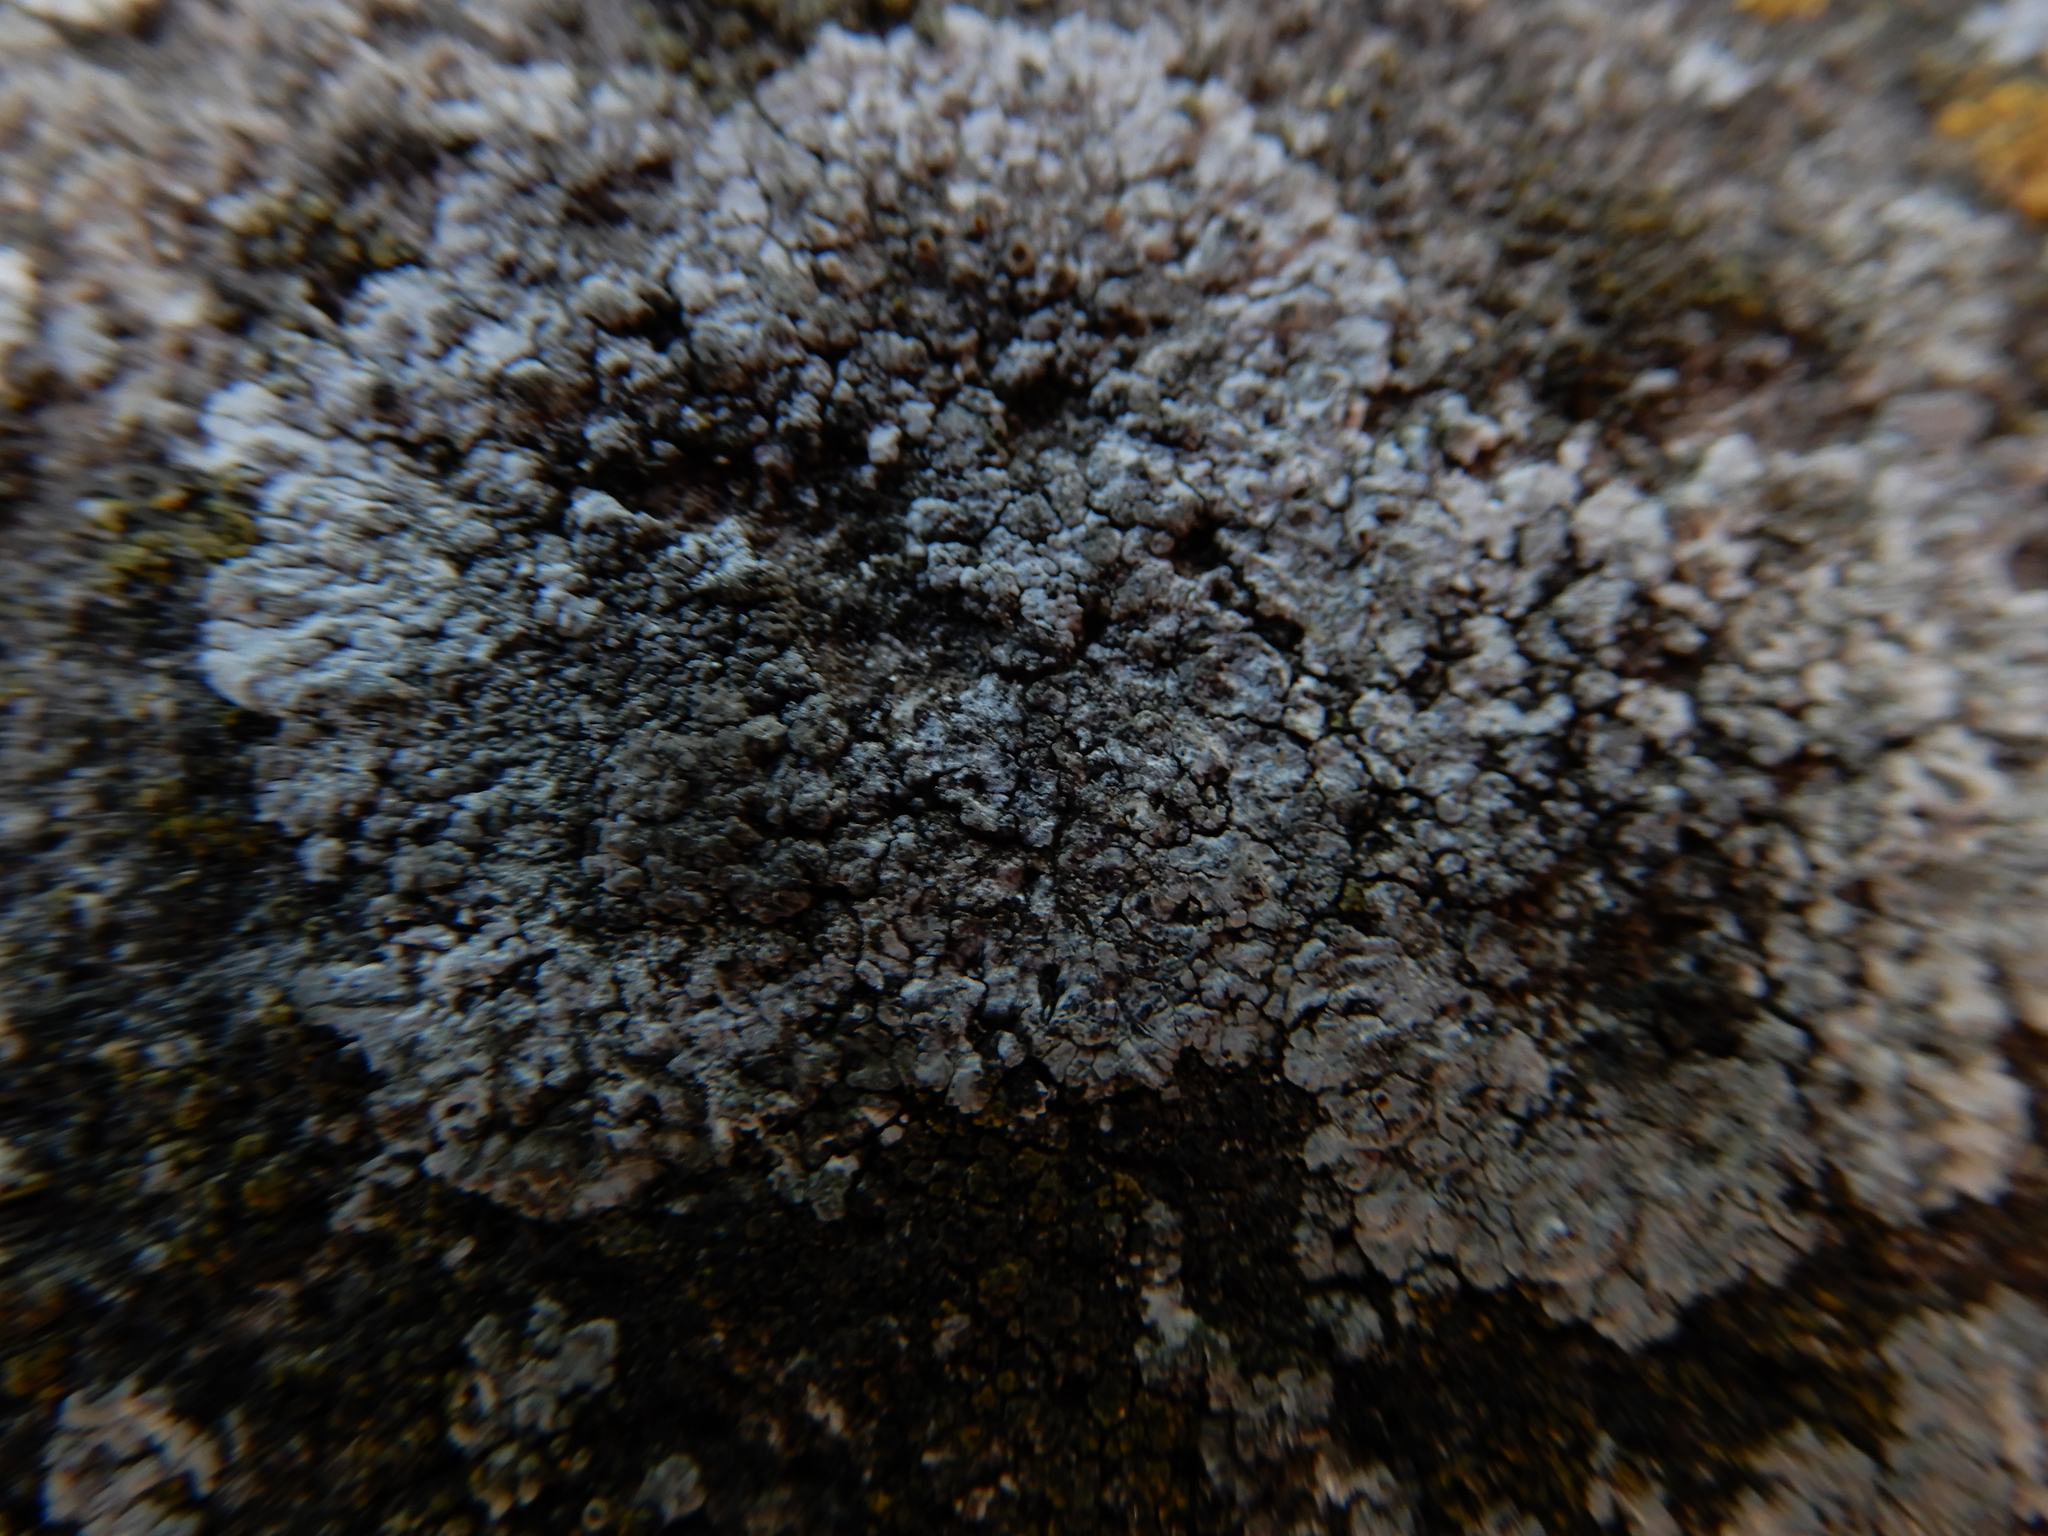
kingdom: Fungi
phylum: Ascomycota
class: Lecanoromycetes
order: Teloschistales
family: Teloschistaceae
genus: Kuettlingeria
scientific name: Kuettlingeria teicholyta
